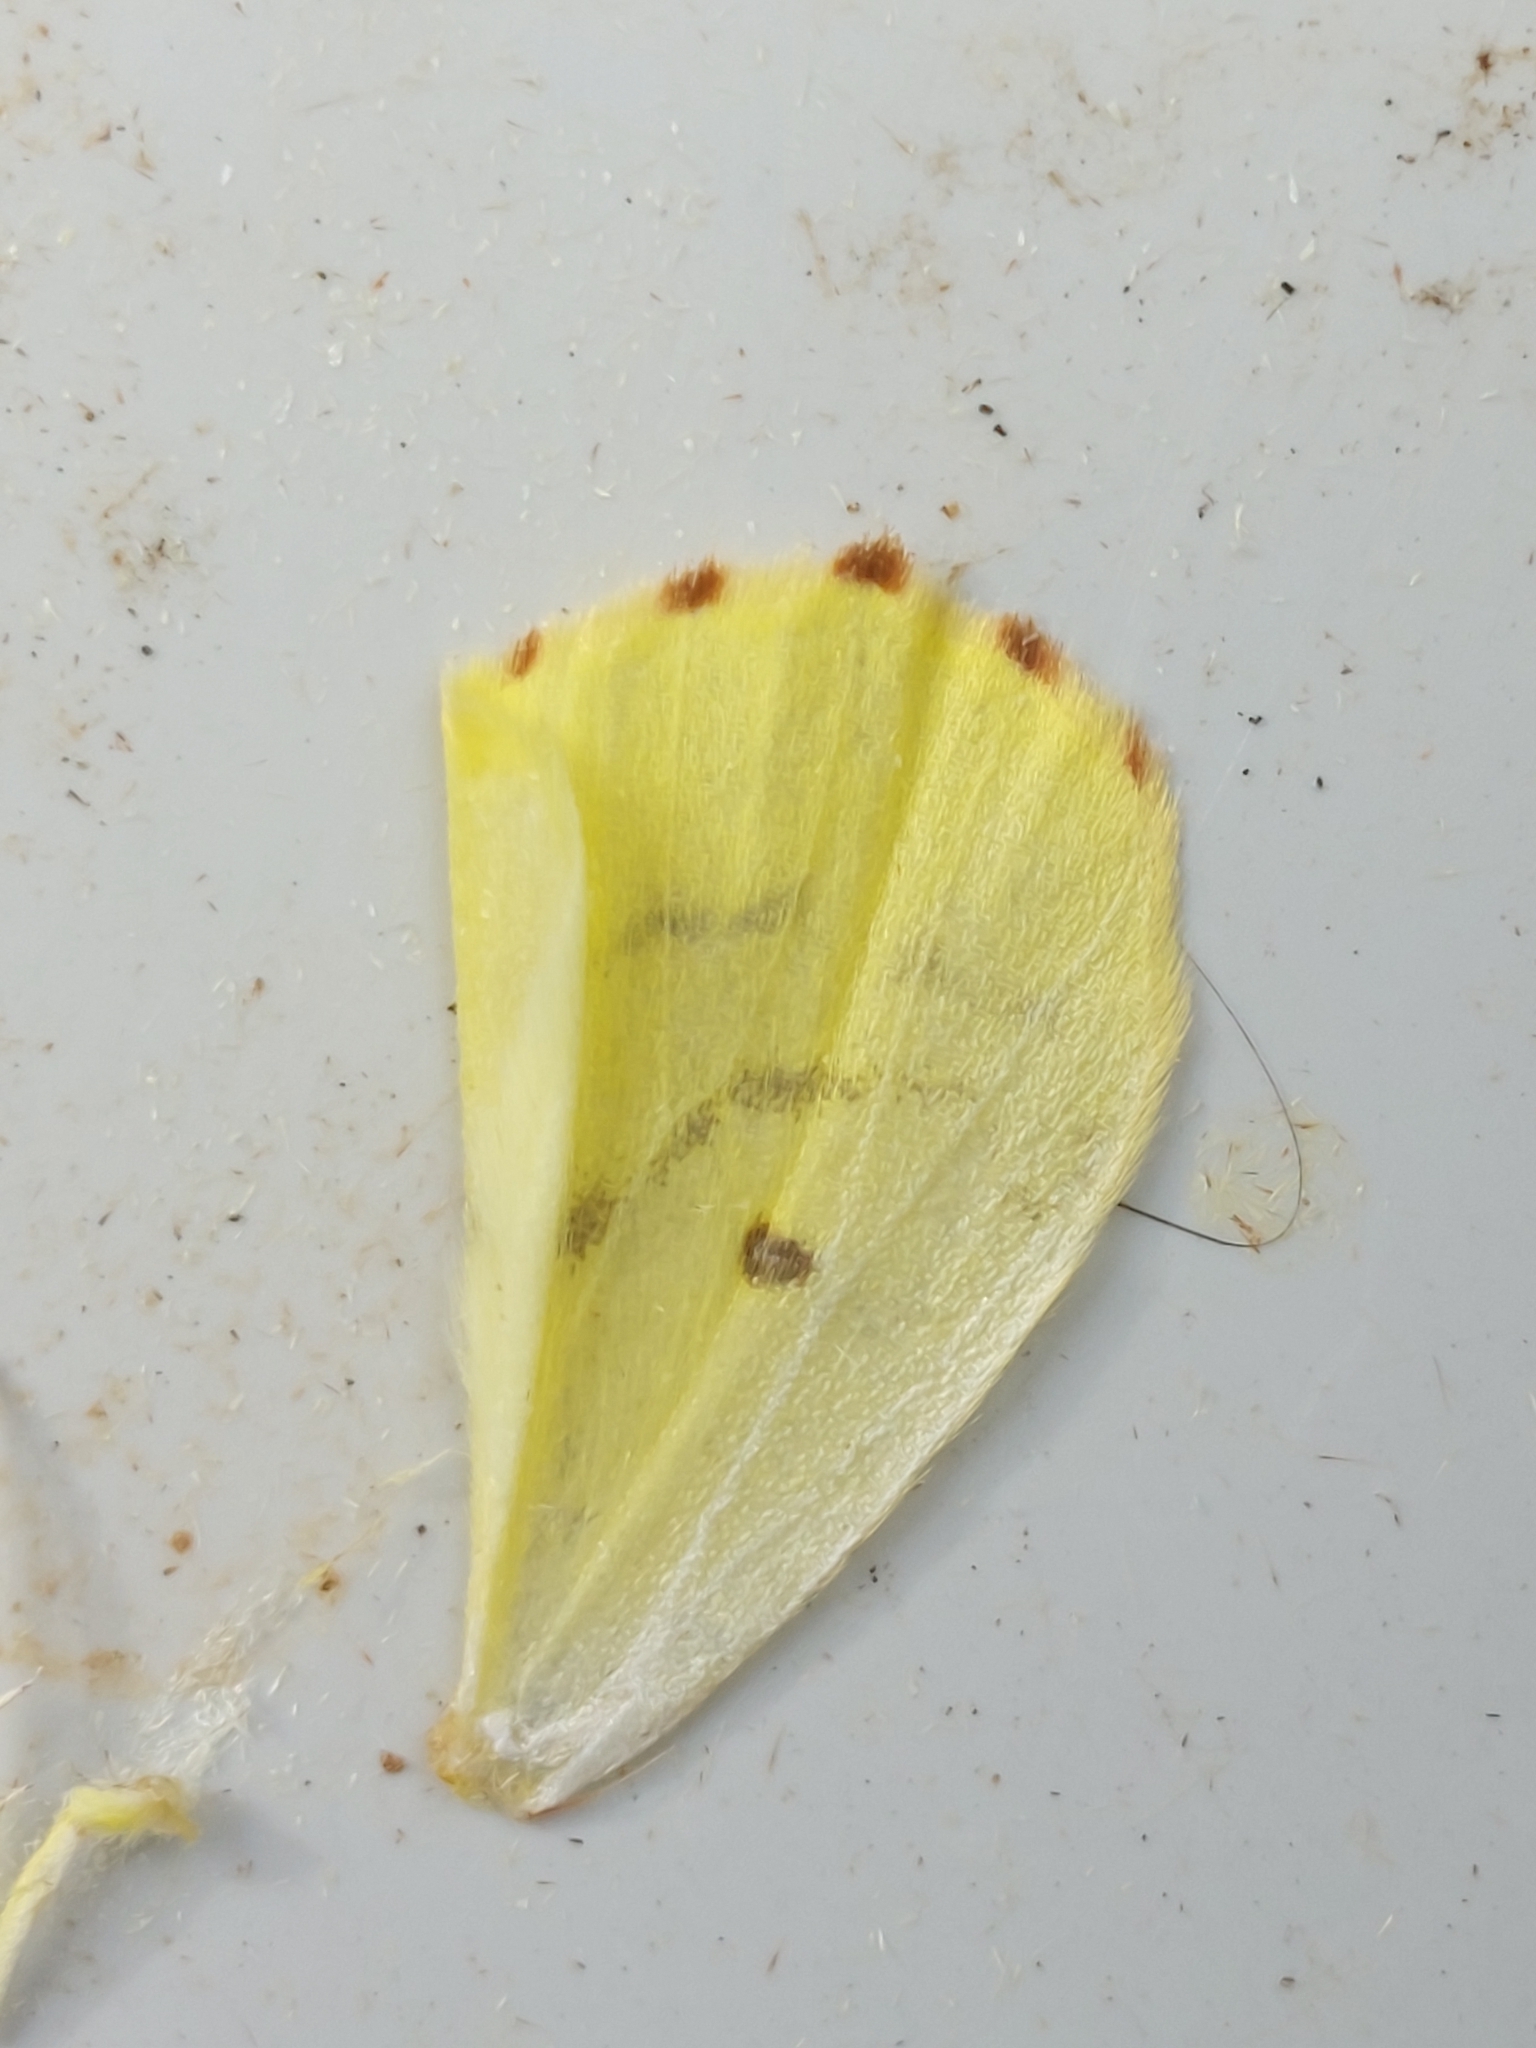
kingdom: Animalia
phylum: Arthropoda
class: Insecta
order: Lepidoptera
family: Geometridae
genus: Opisthograptis
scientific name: Opisthograptis luteolata
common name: Brimstone moth
